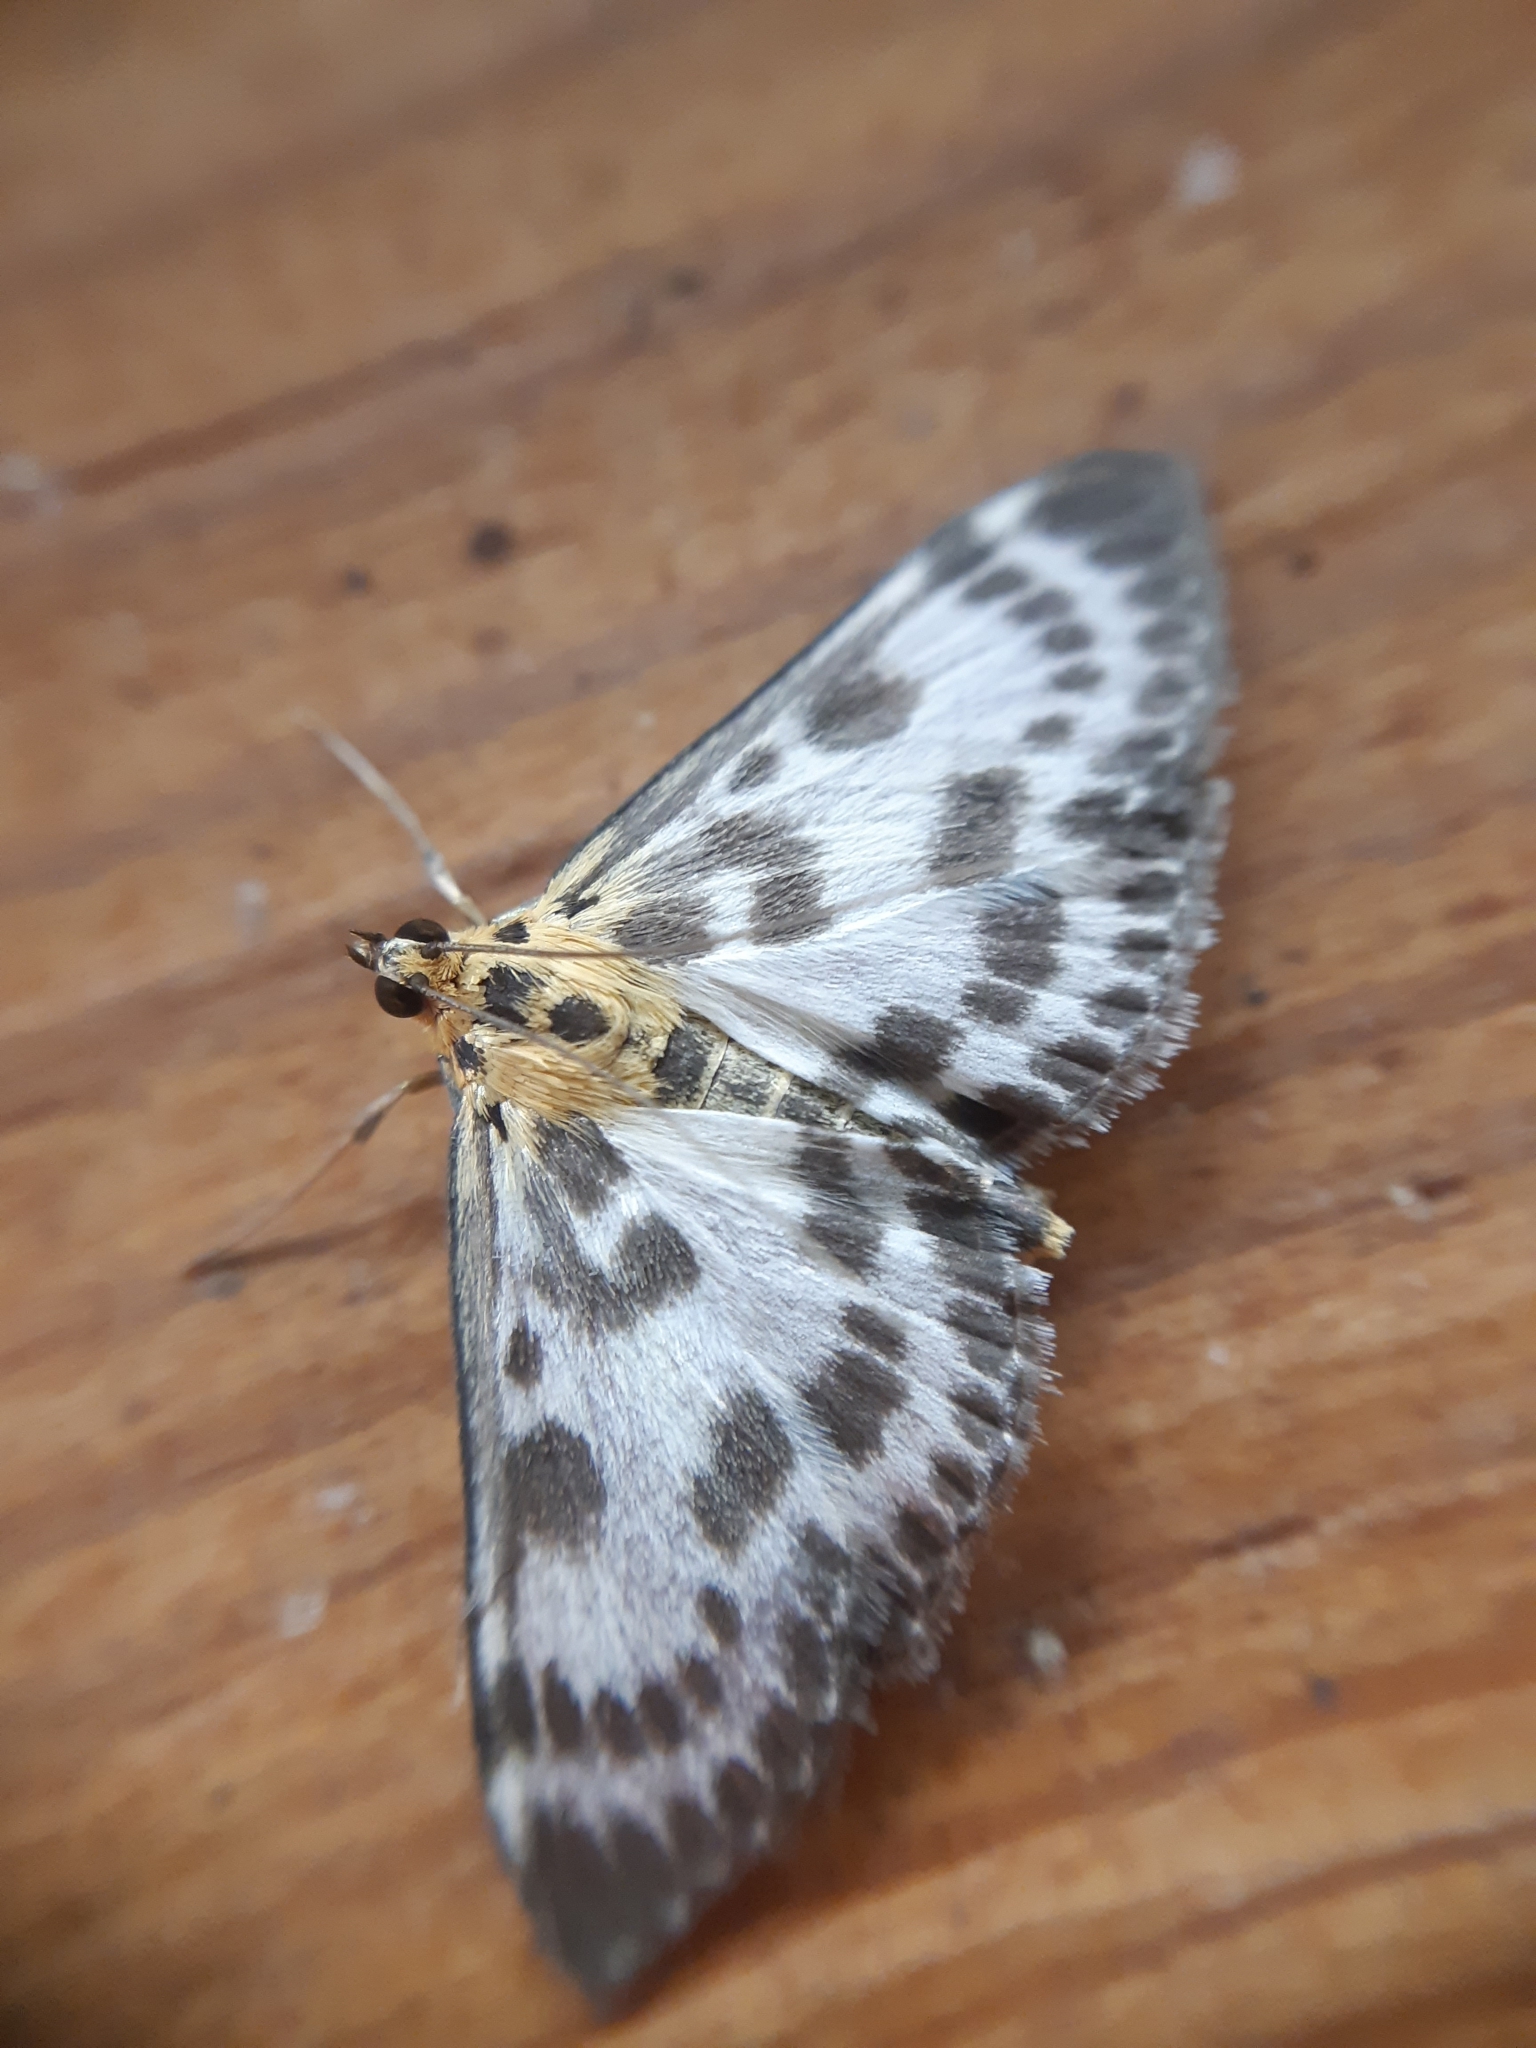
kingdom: Animalia
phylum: Arthropoda
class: Insecta
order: Lepidoptera
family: Crambidae
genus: Anania
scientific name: Anania hortulata
